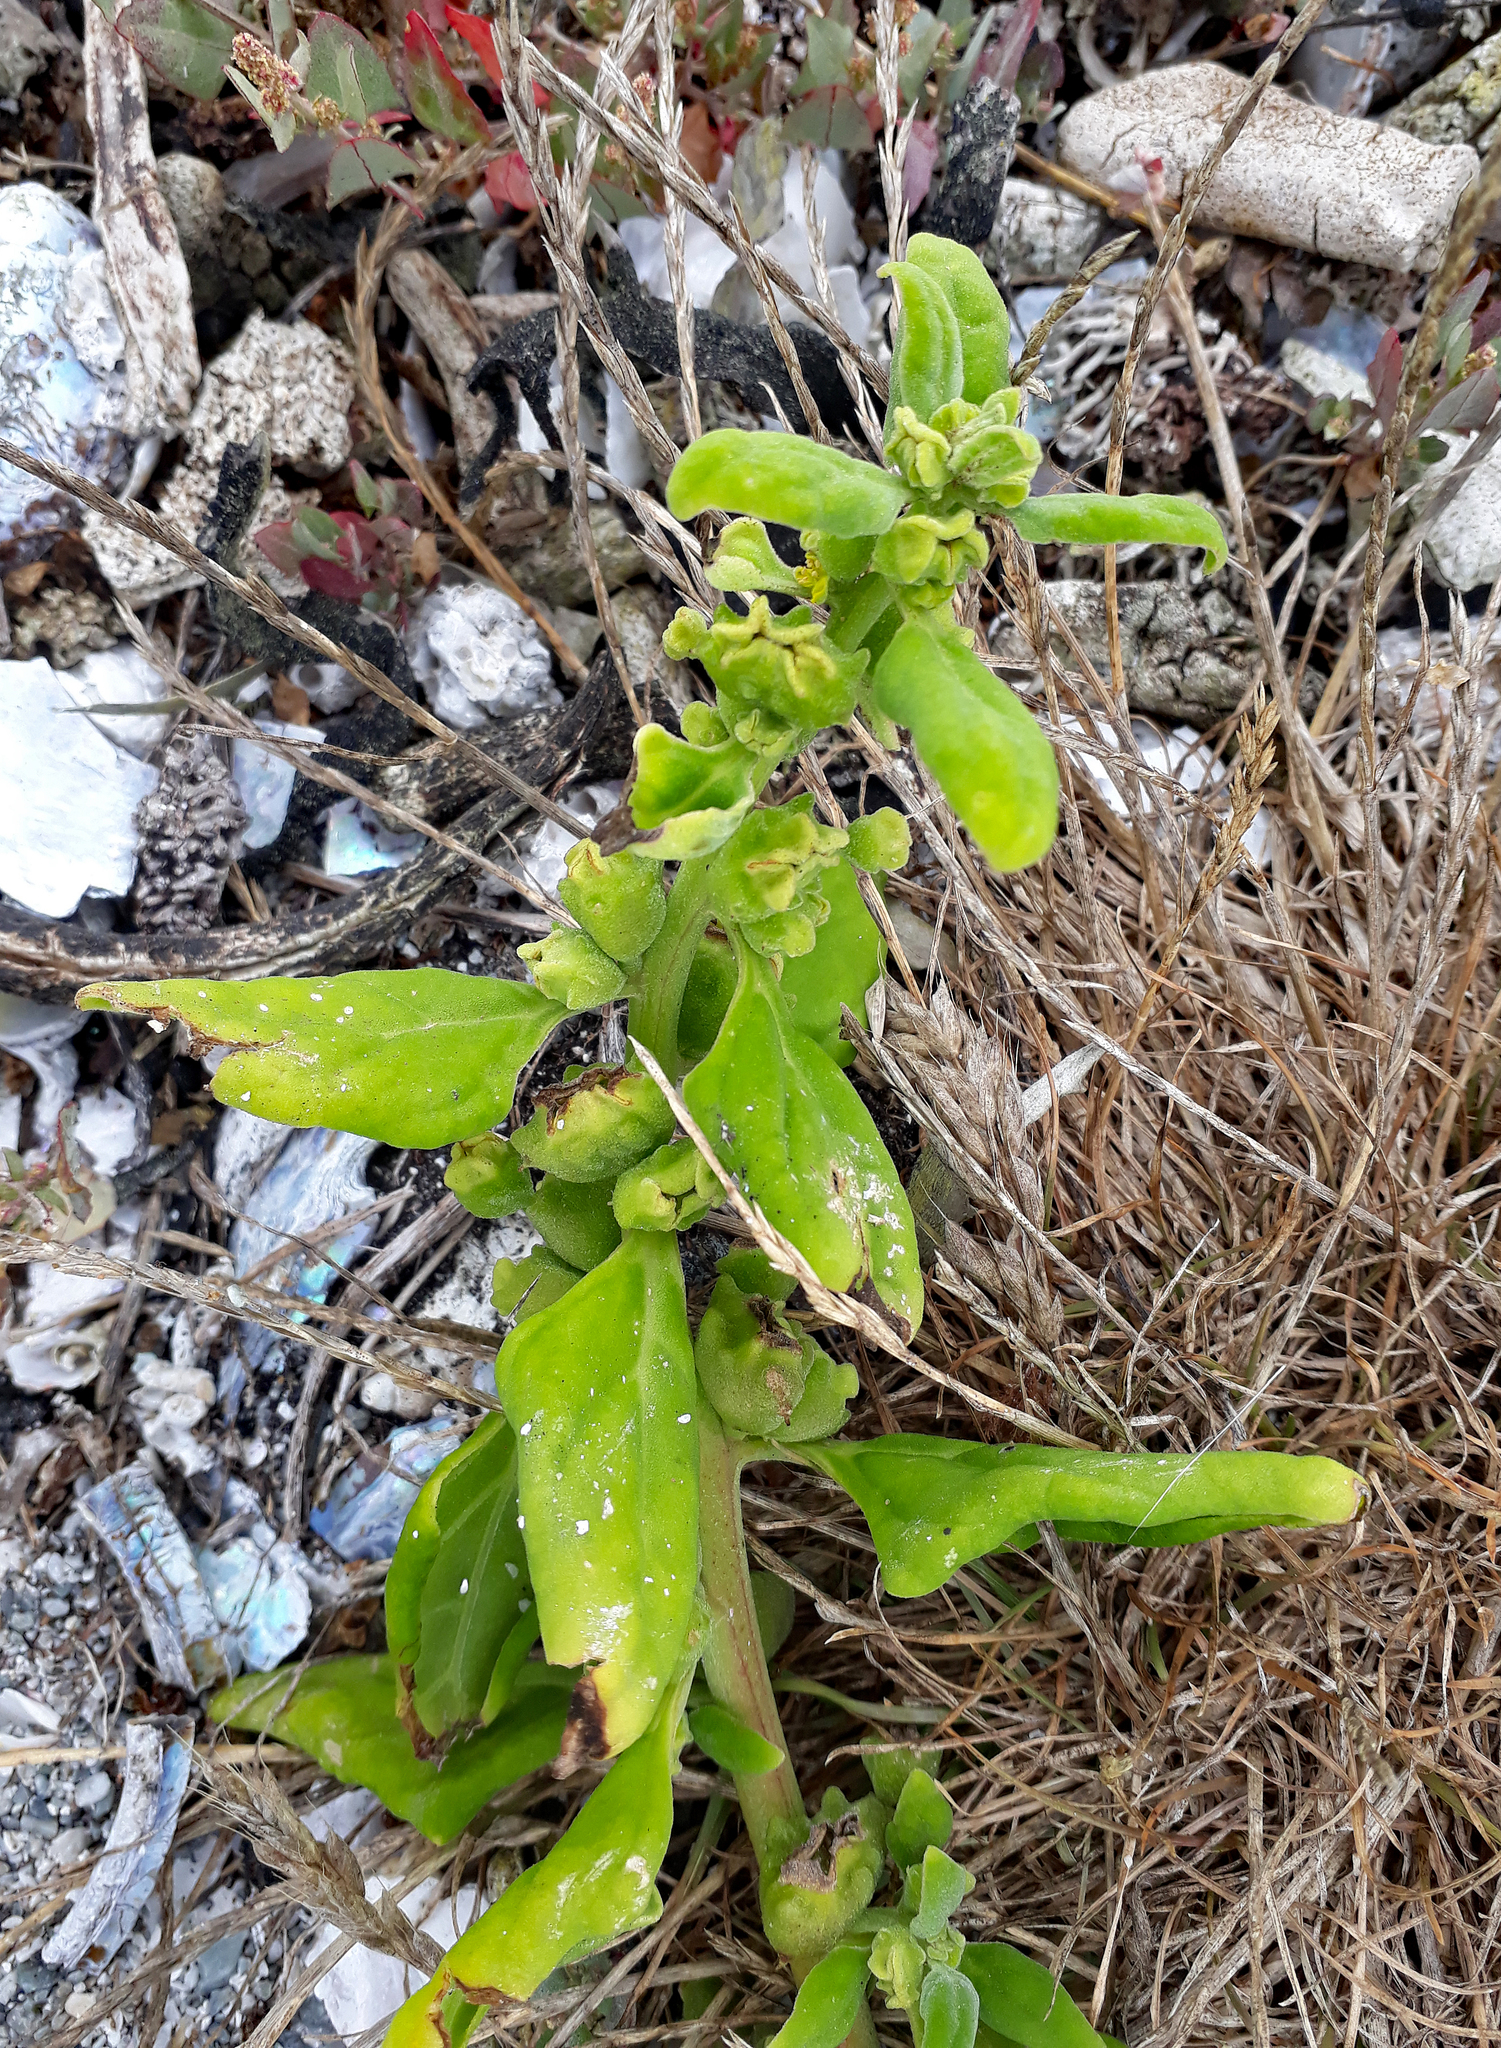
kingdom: Plantae
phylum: Tracheophyta
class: Magnoliopsida
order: Caryophyllales
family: Aizoaceae
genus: Tetragonia
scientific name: Tetragonia tetragonoides
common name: New zealand-spinach
